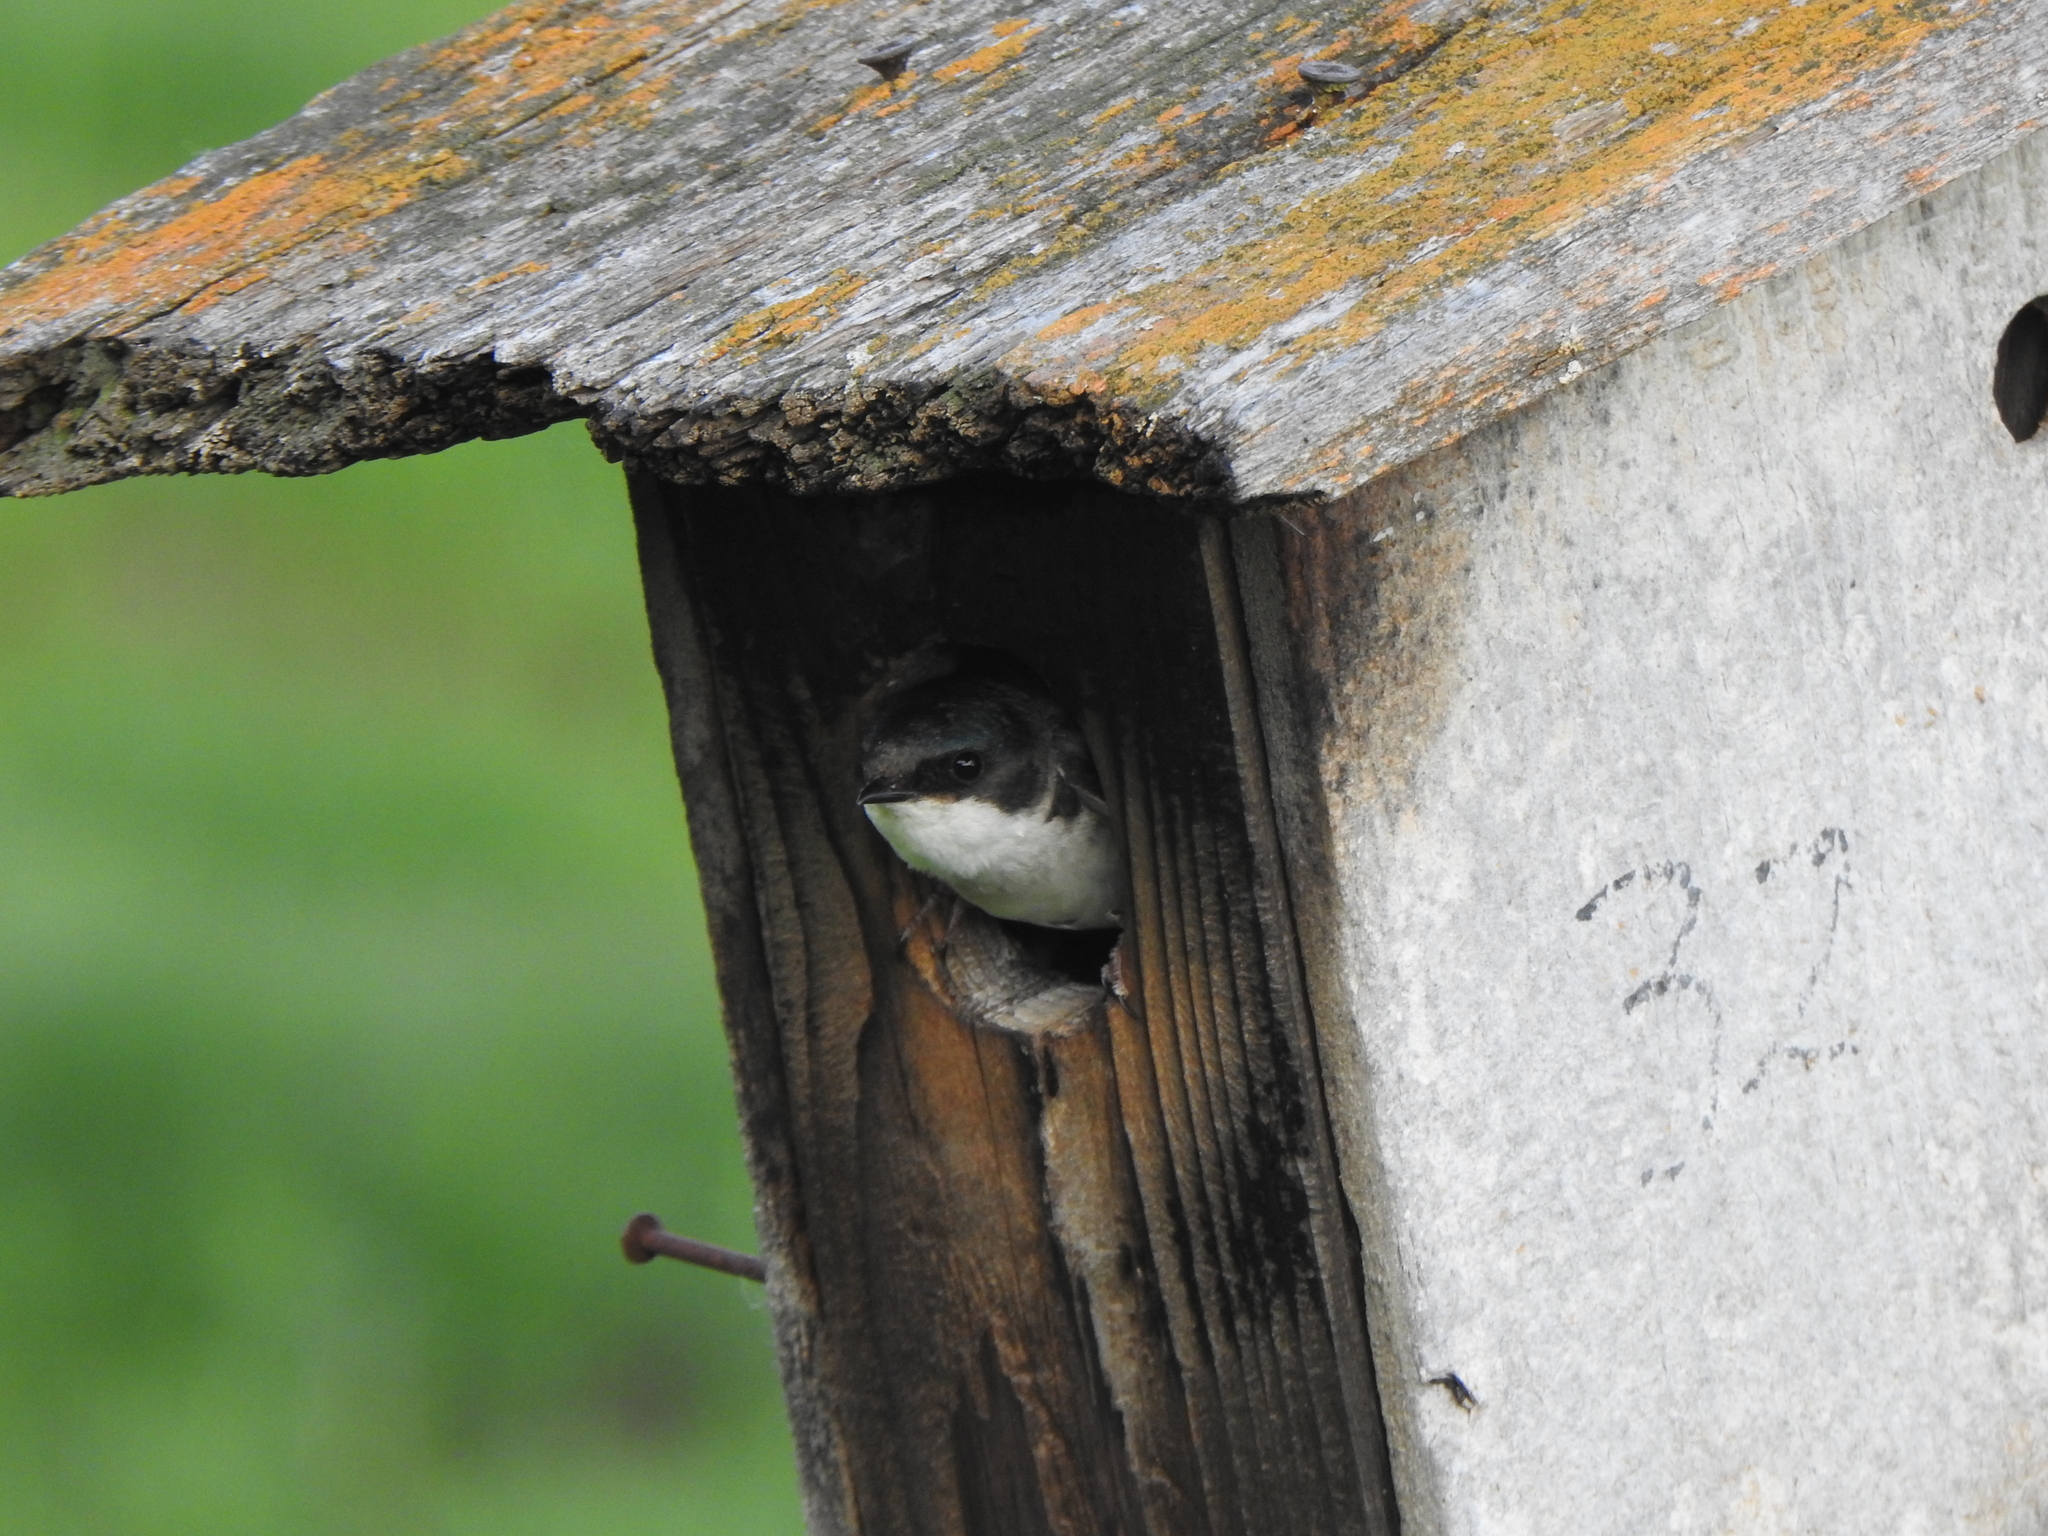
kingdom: Animalia
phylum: Chordata
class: Aves
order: Passeriformes
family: Hirundinidae
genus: Tachycineta
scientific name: Tachycineta bicolor
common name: Tree swallow
